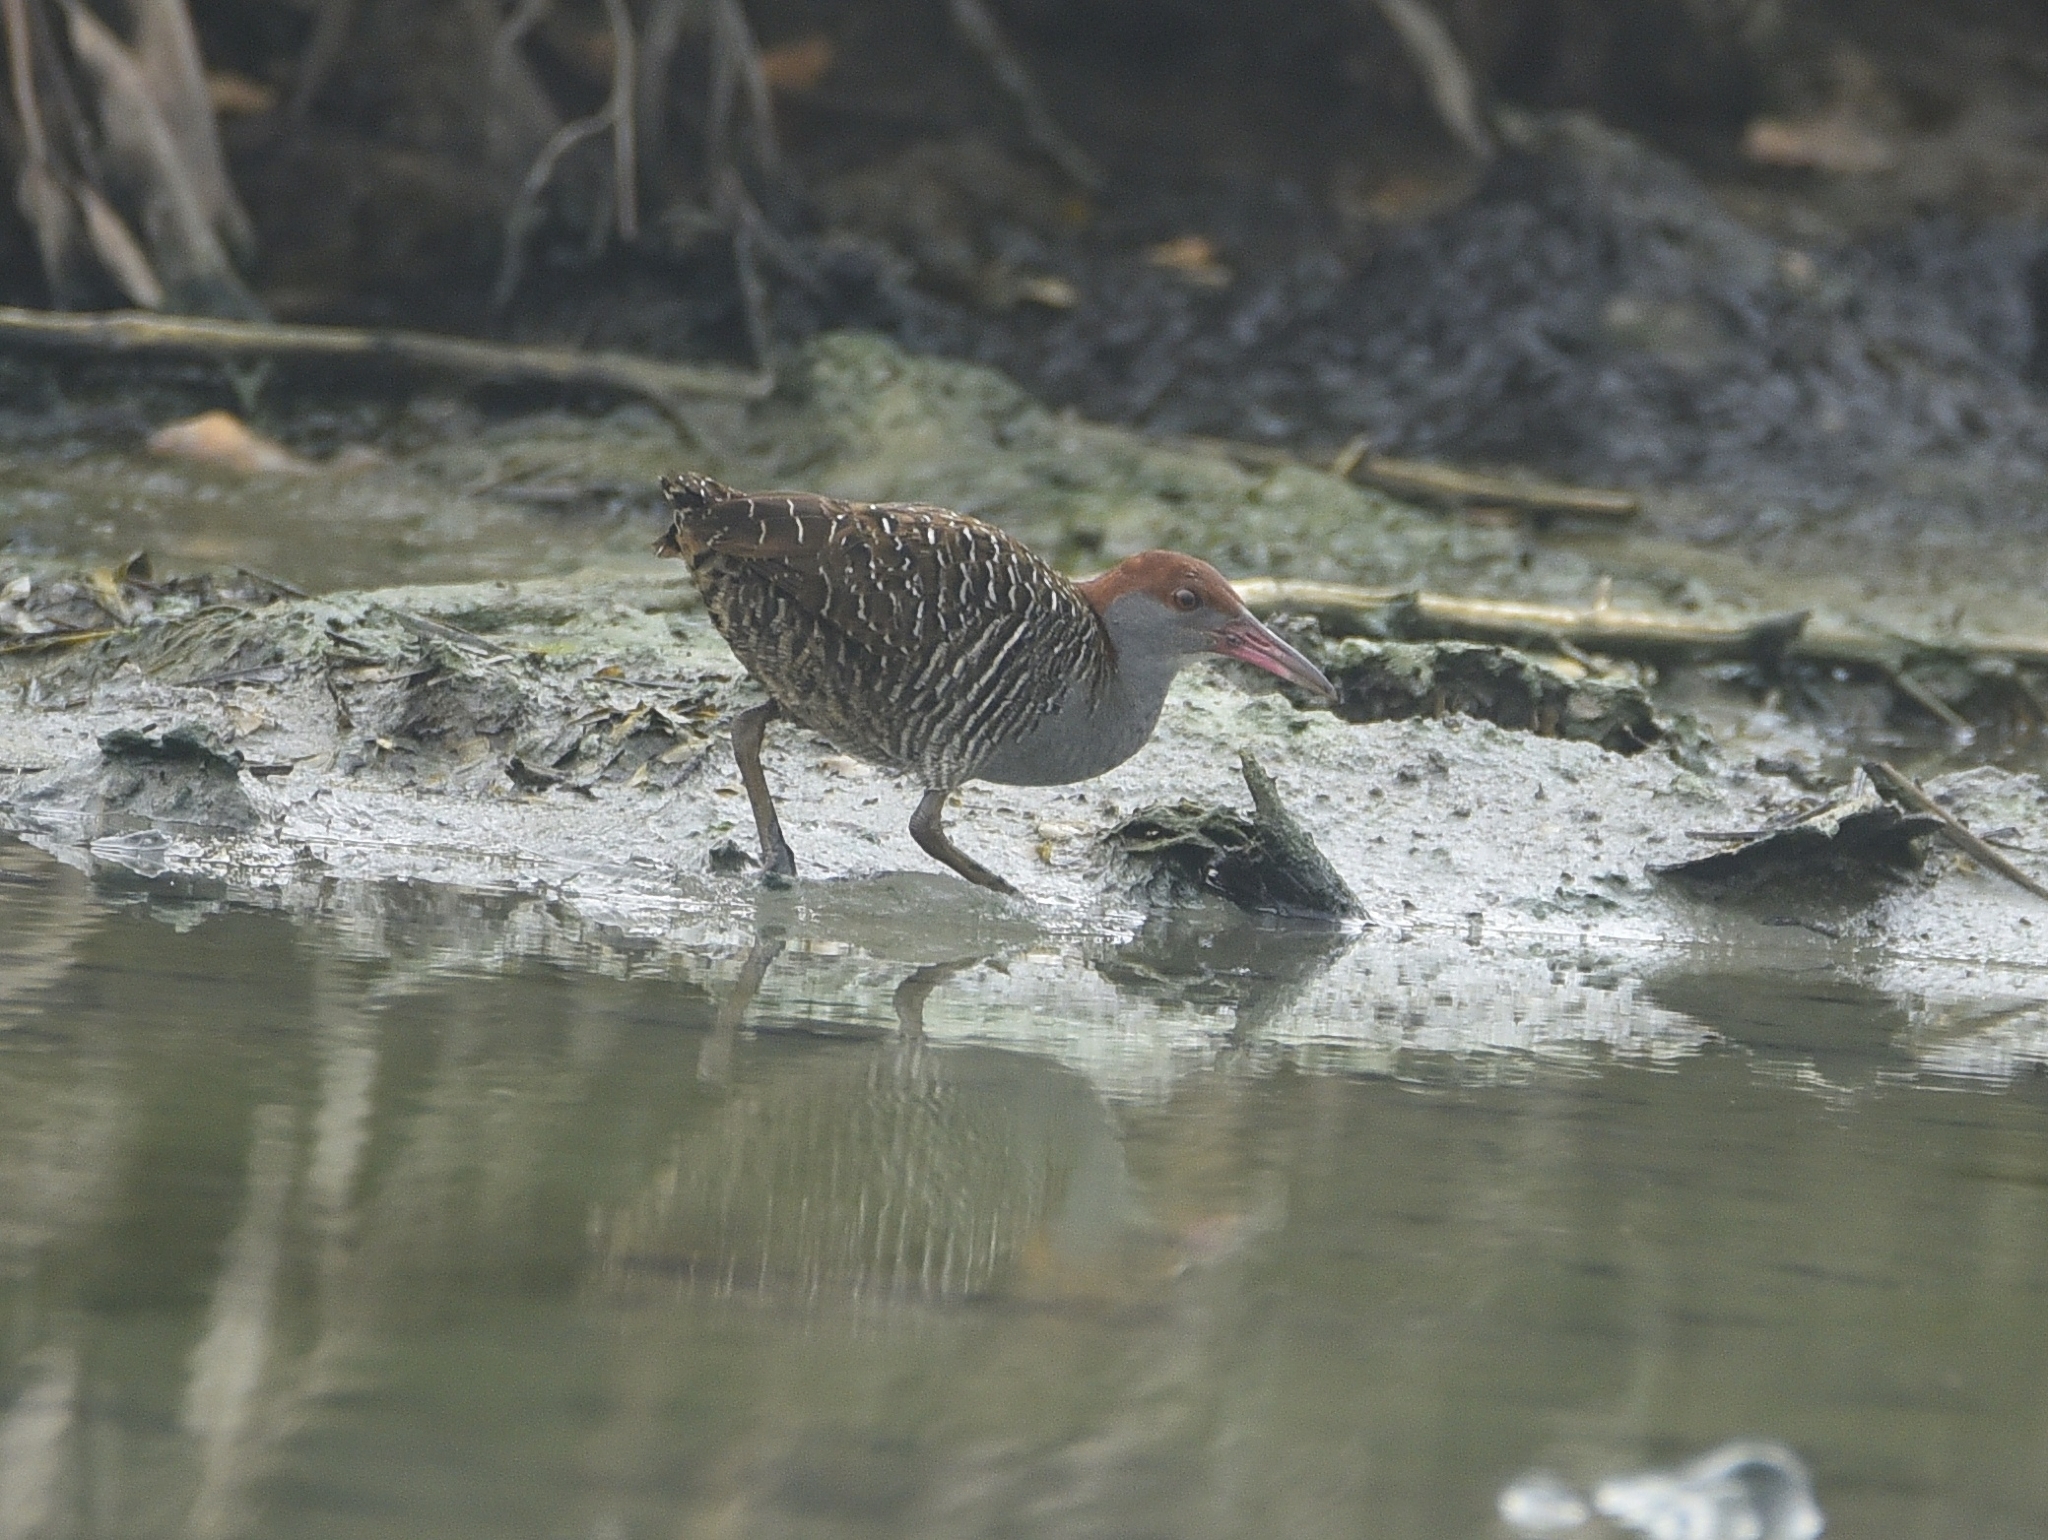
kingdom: Animalia
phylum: Chordata
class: Aves
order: Gruiformes
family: Rallidae
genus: Gallirallus
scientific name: Gallirallus striatus
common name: Slaty-breasted rail
